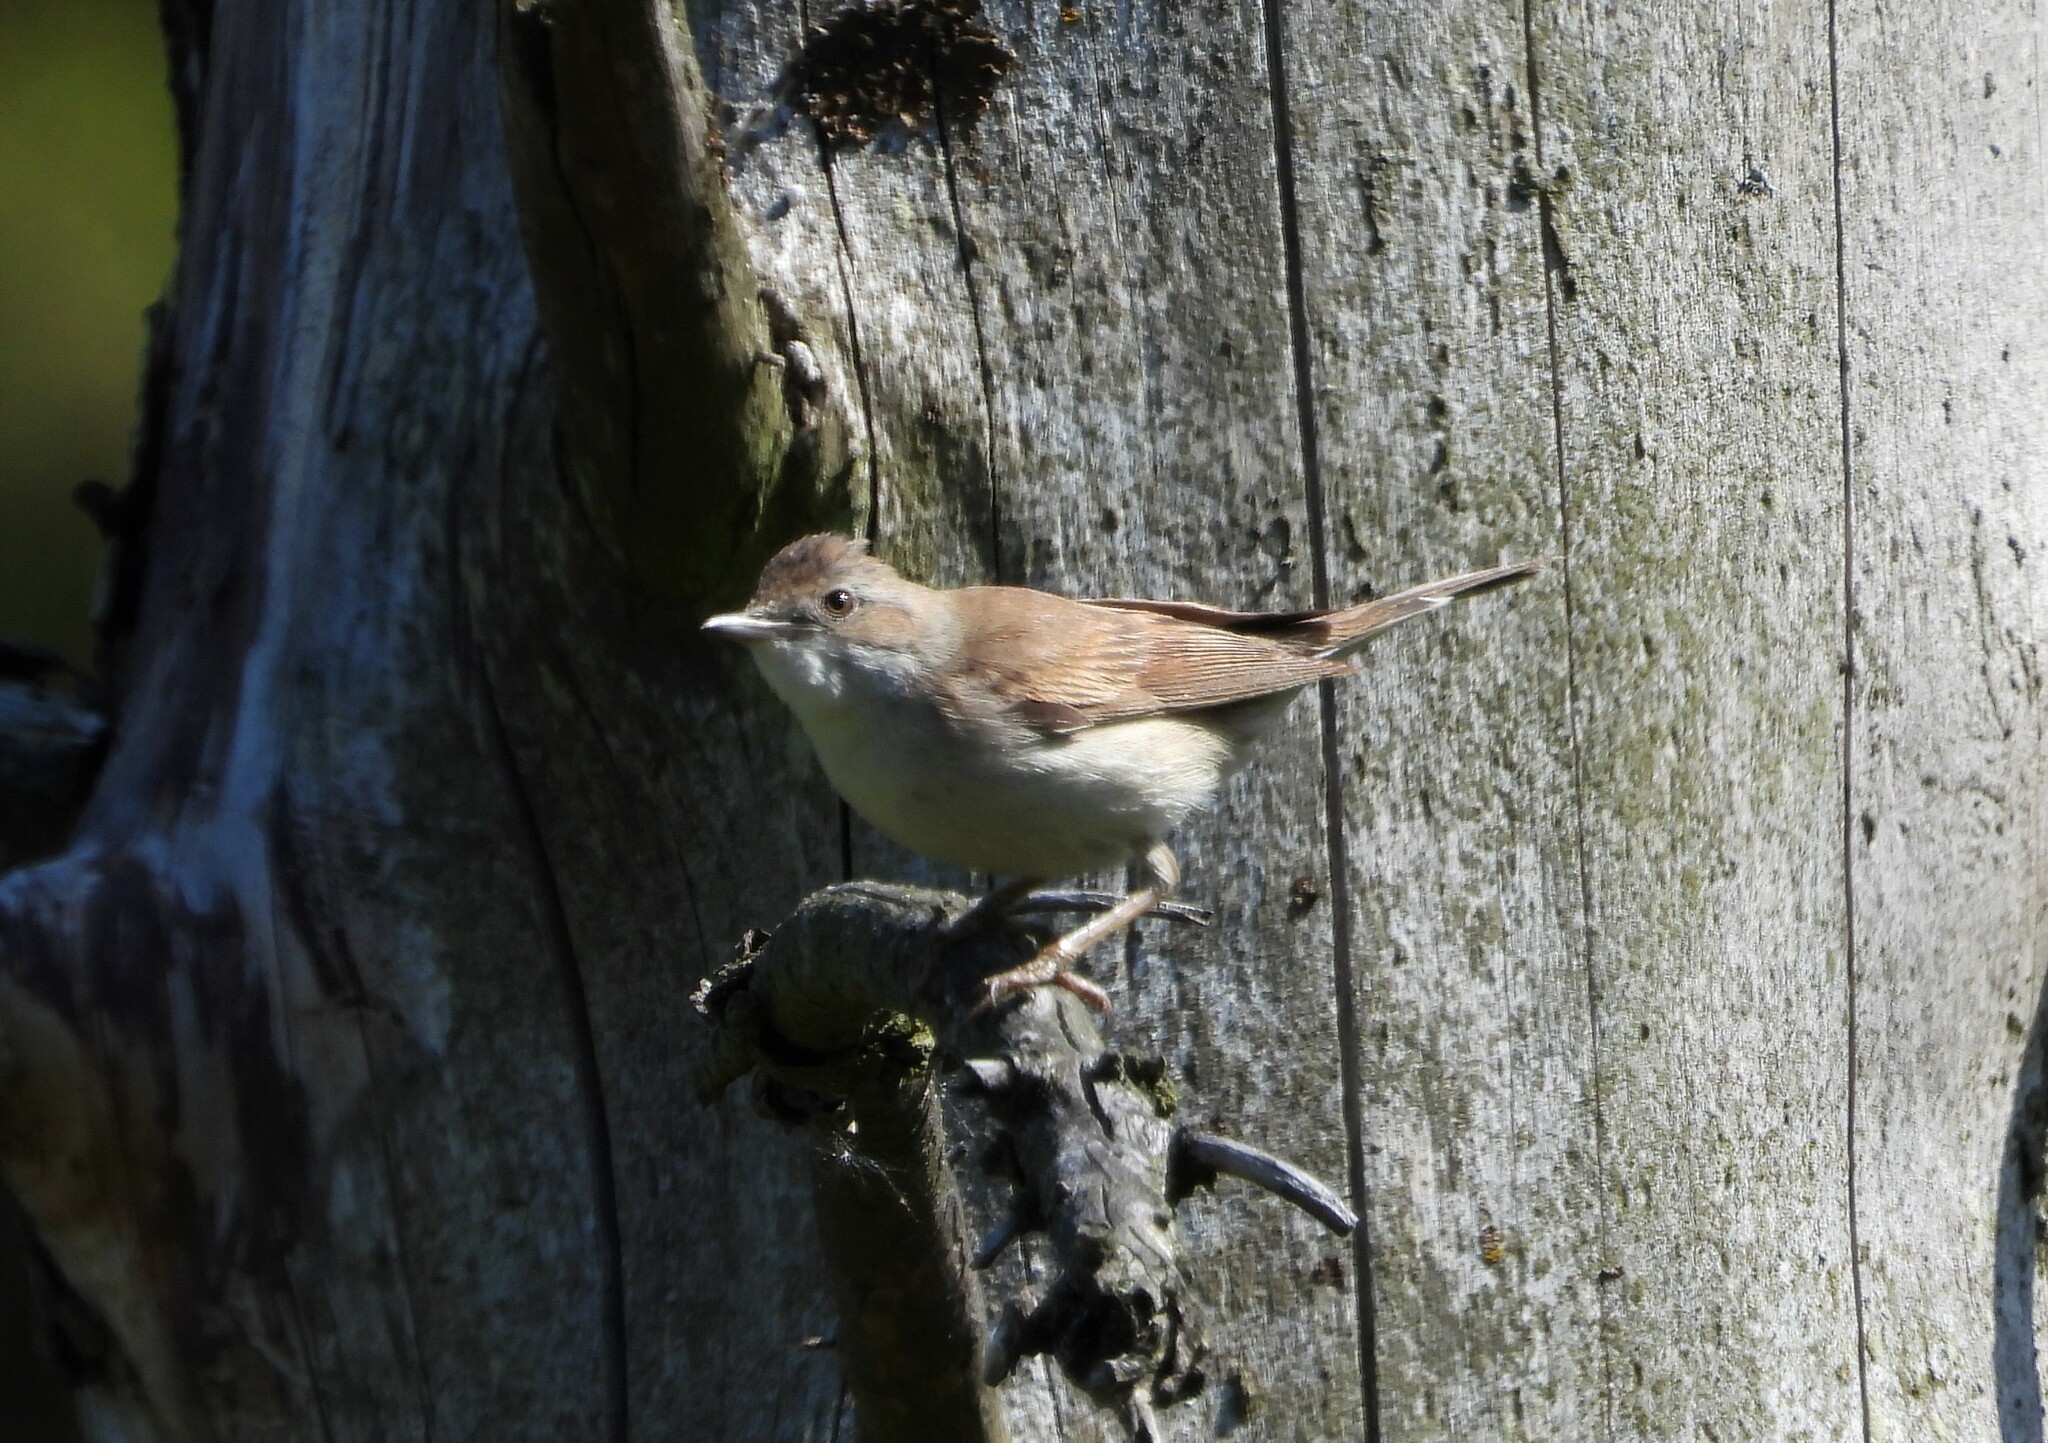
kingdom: Animalia
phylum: Chordata
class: Aves
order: Passeriformes
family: Sylviidae
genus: Sylvia
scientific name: Sylvia communis
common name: Common whitethroat
